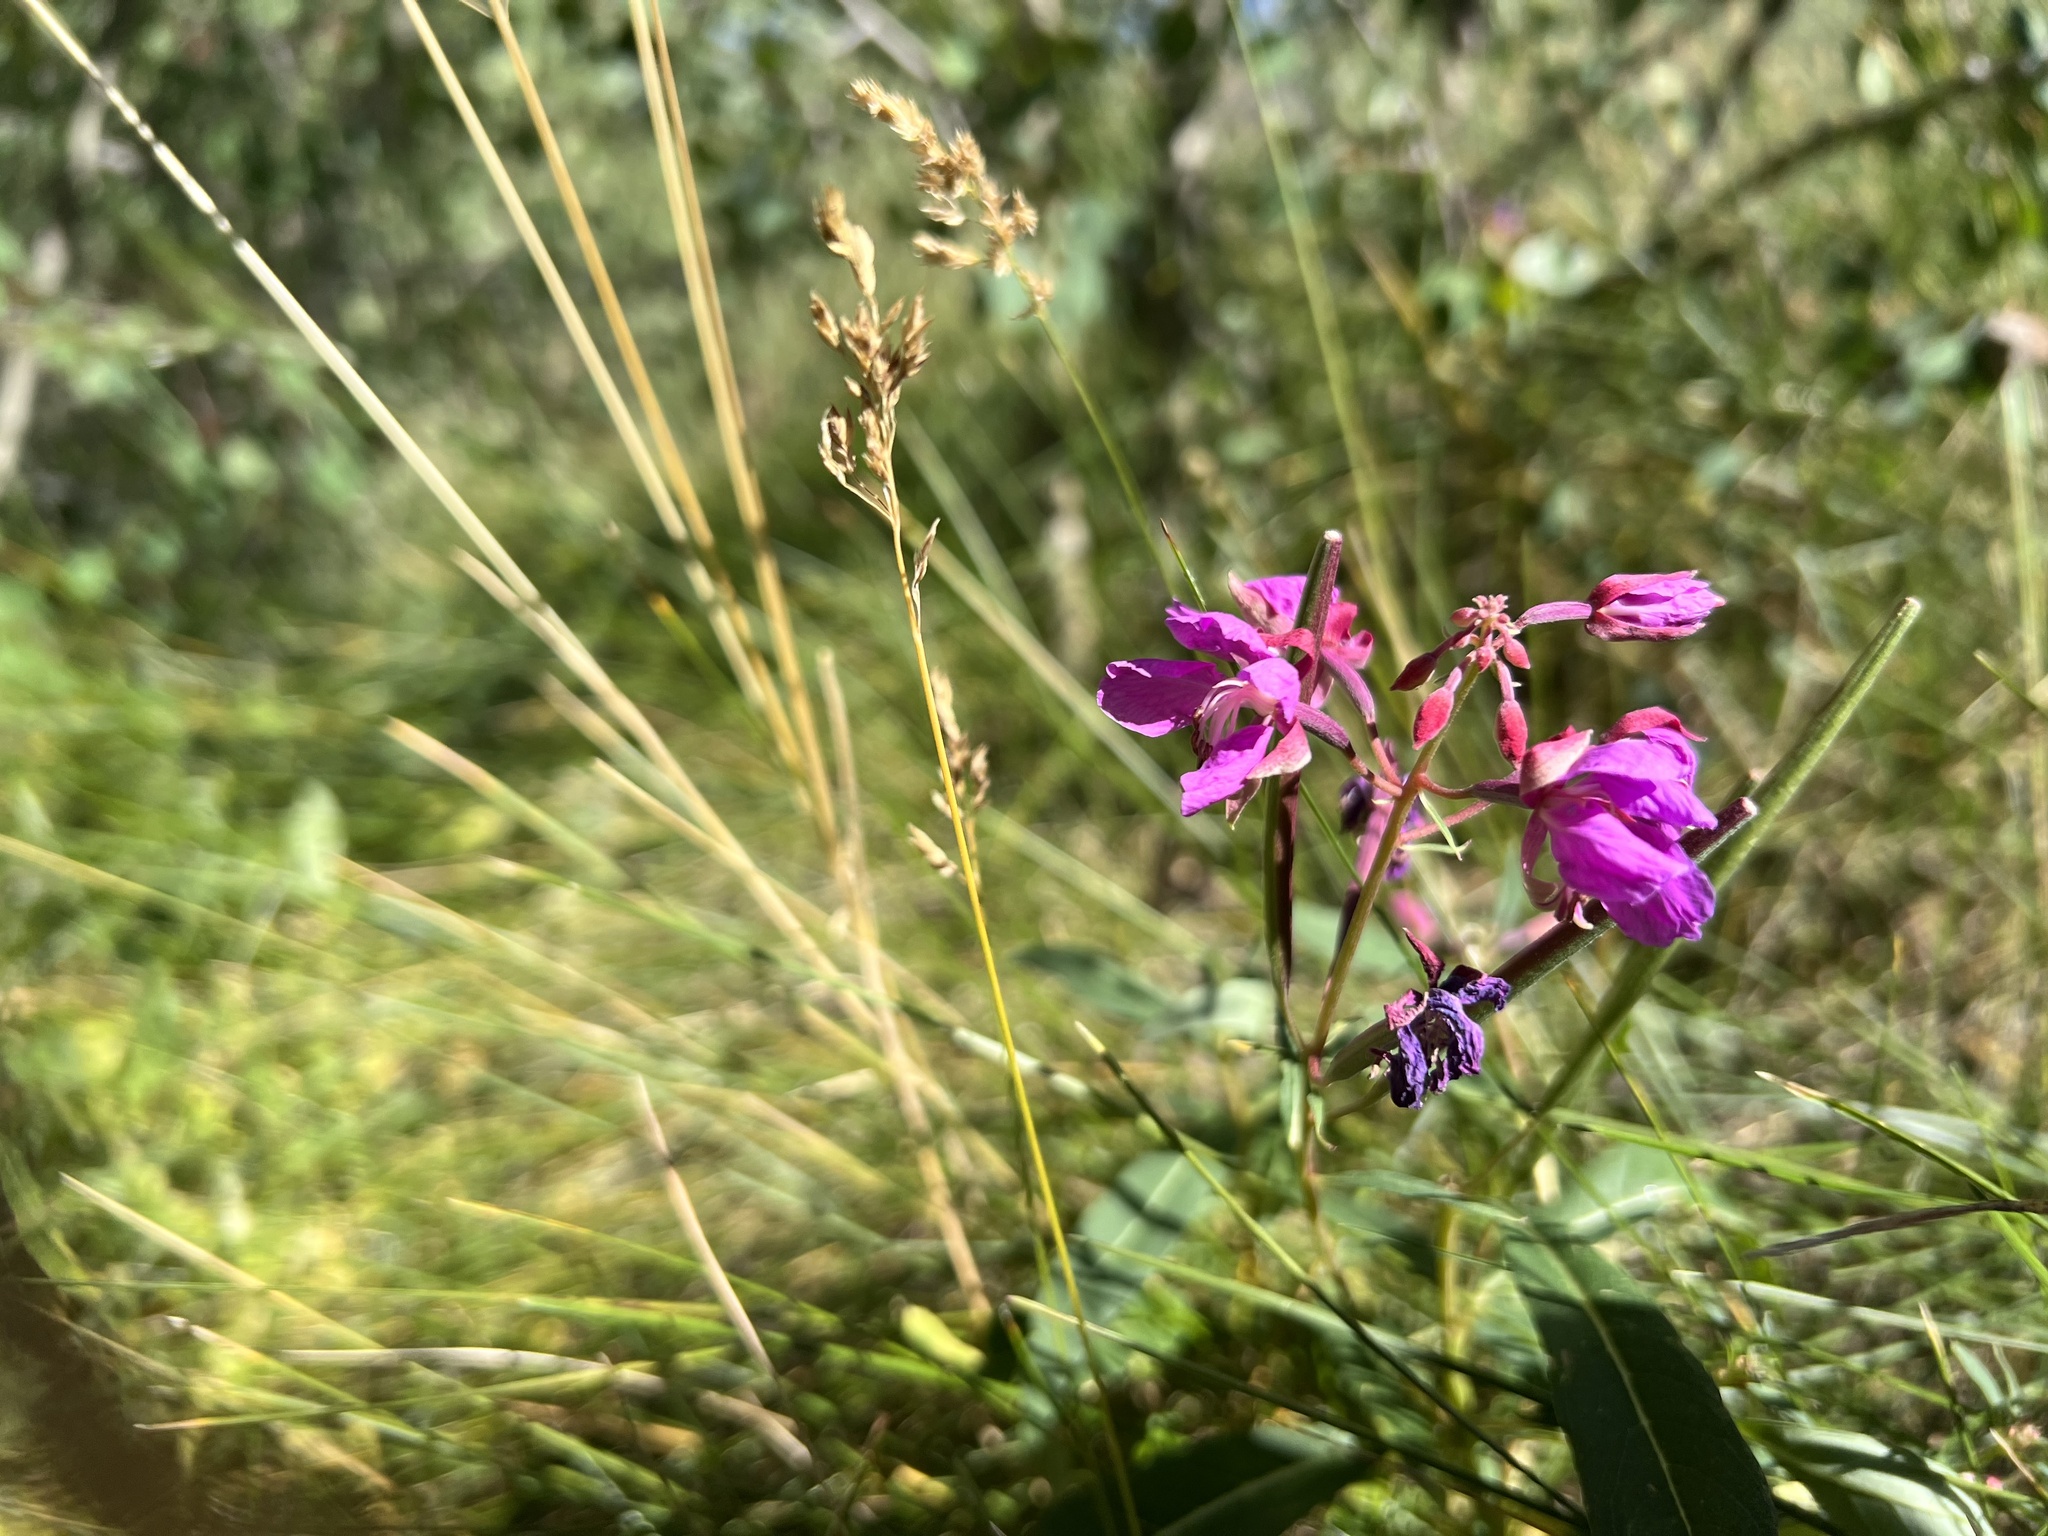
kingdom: Plantae
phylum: Tracheophyta
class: Magnoliopsida
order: Myrtales
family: Onagraceae
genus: Chamaenerion
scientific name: Chamaenerion angustifolium
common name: Fireweed
